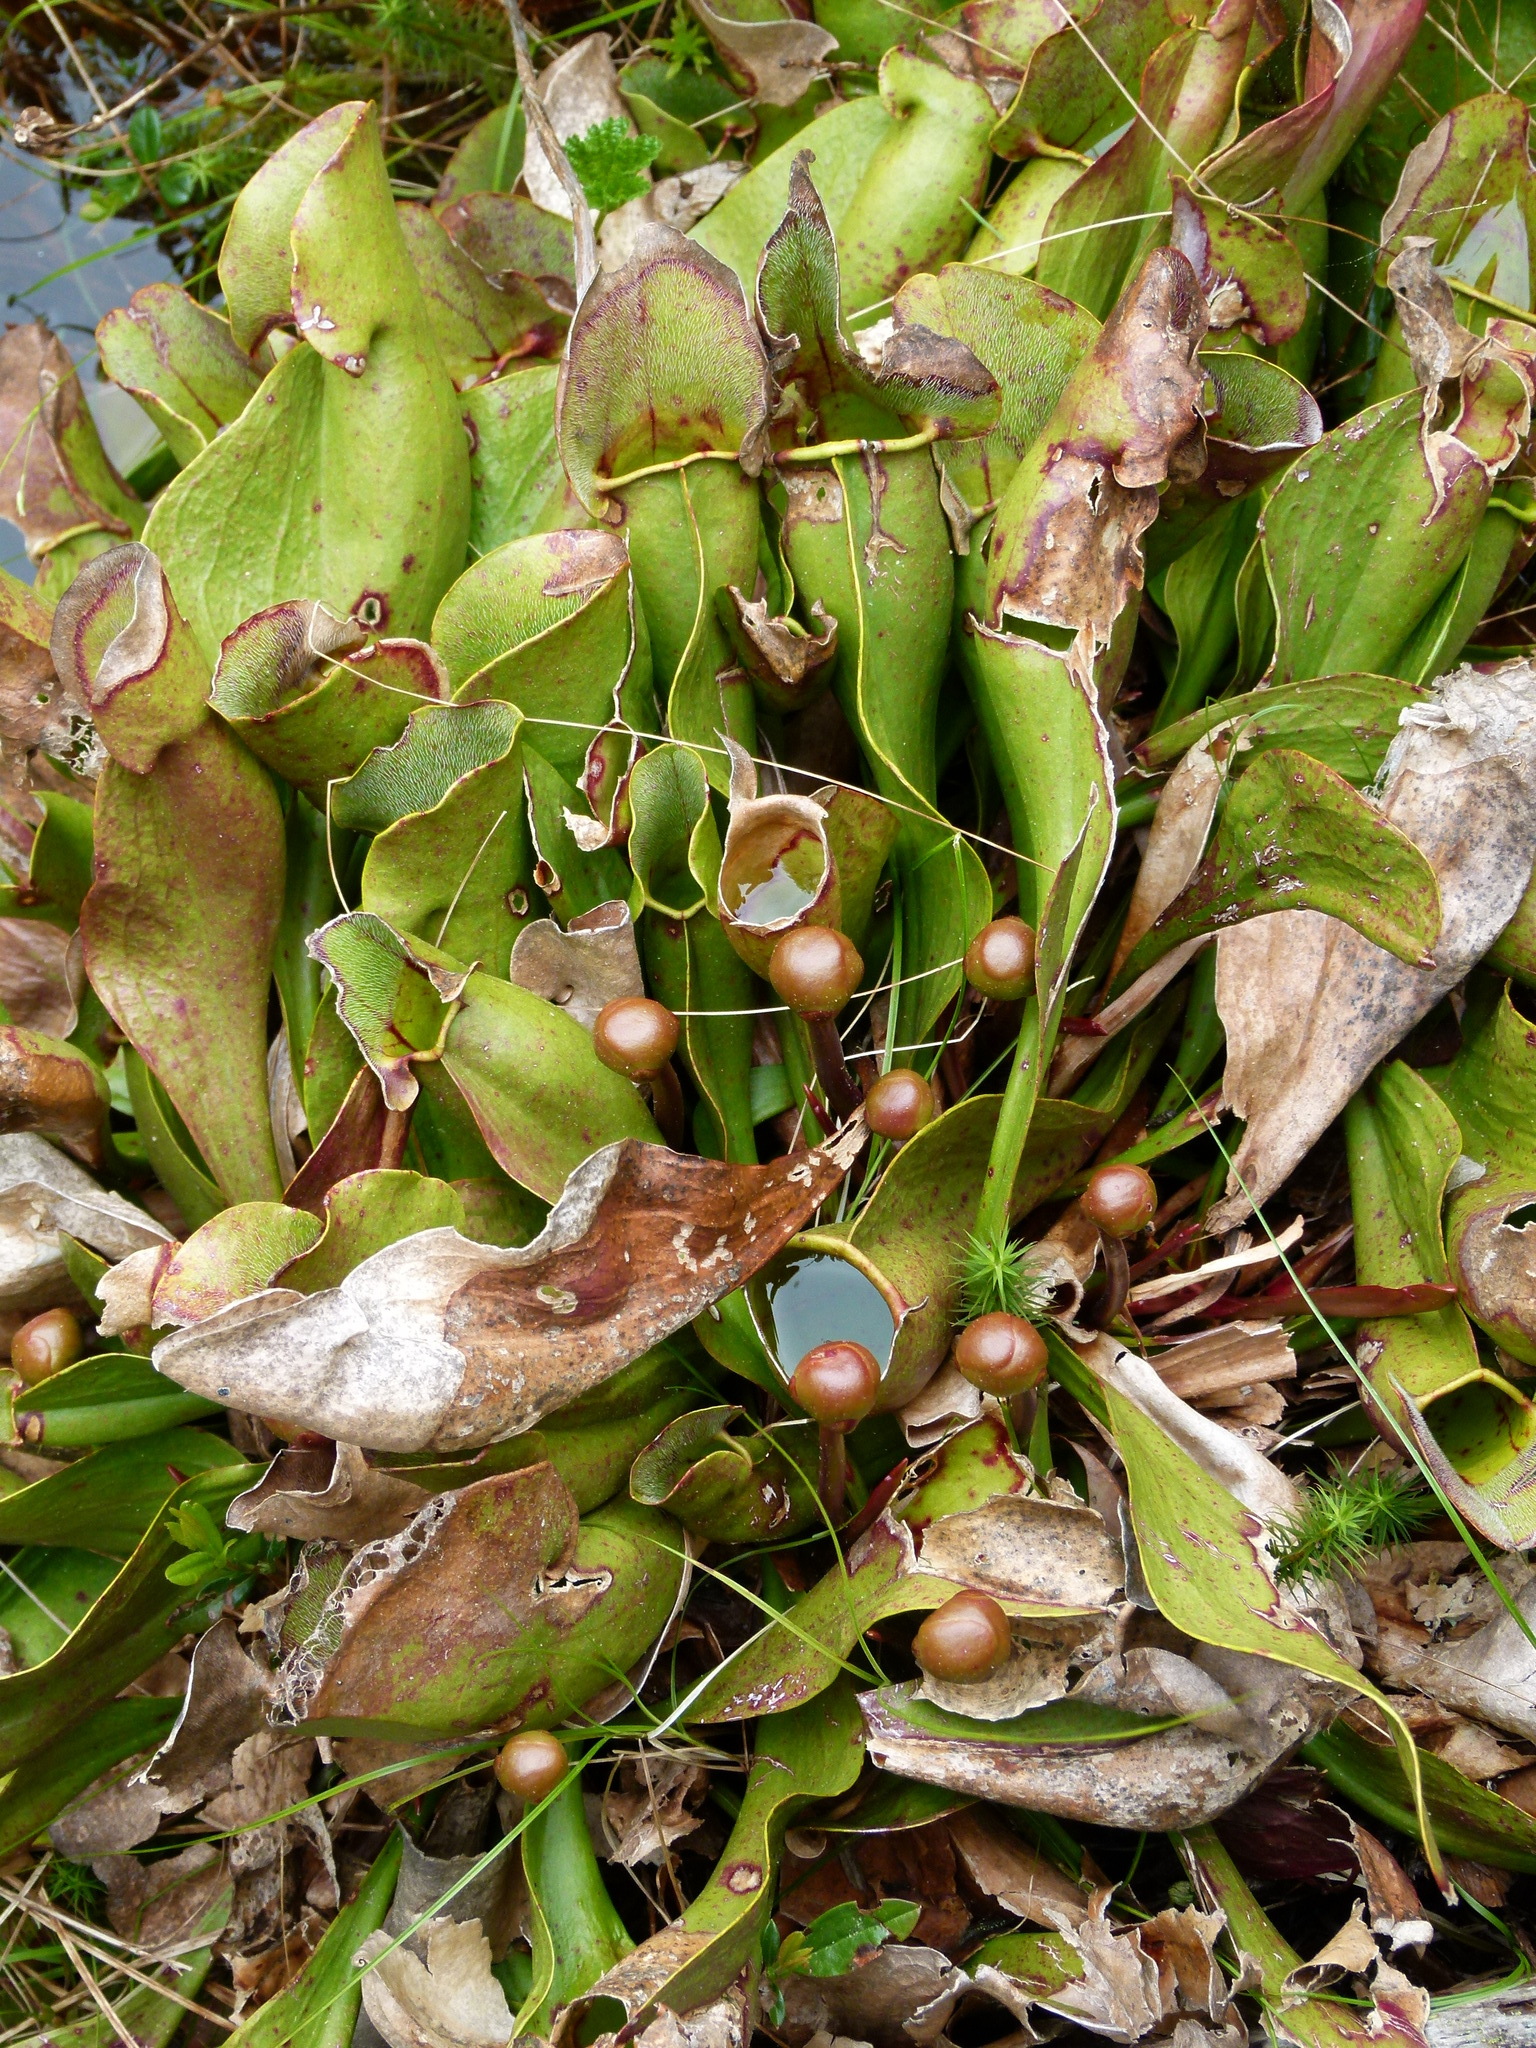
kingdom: Plantae
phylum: Tracheophyta
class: Magnoliopsida
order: Ericales
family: Sarraceniaceae
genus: Sarracenia
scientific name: Sarracenia purpurea
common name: Pitcherplant
